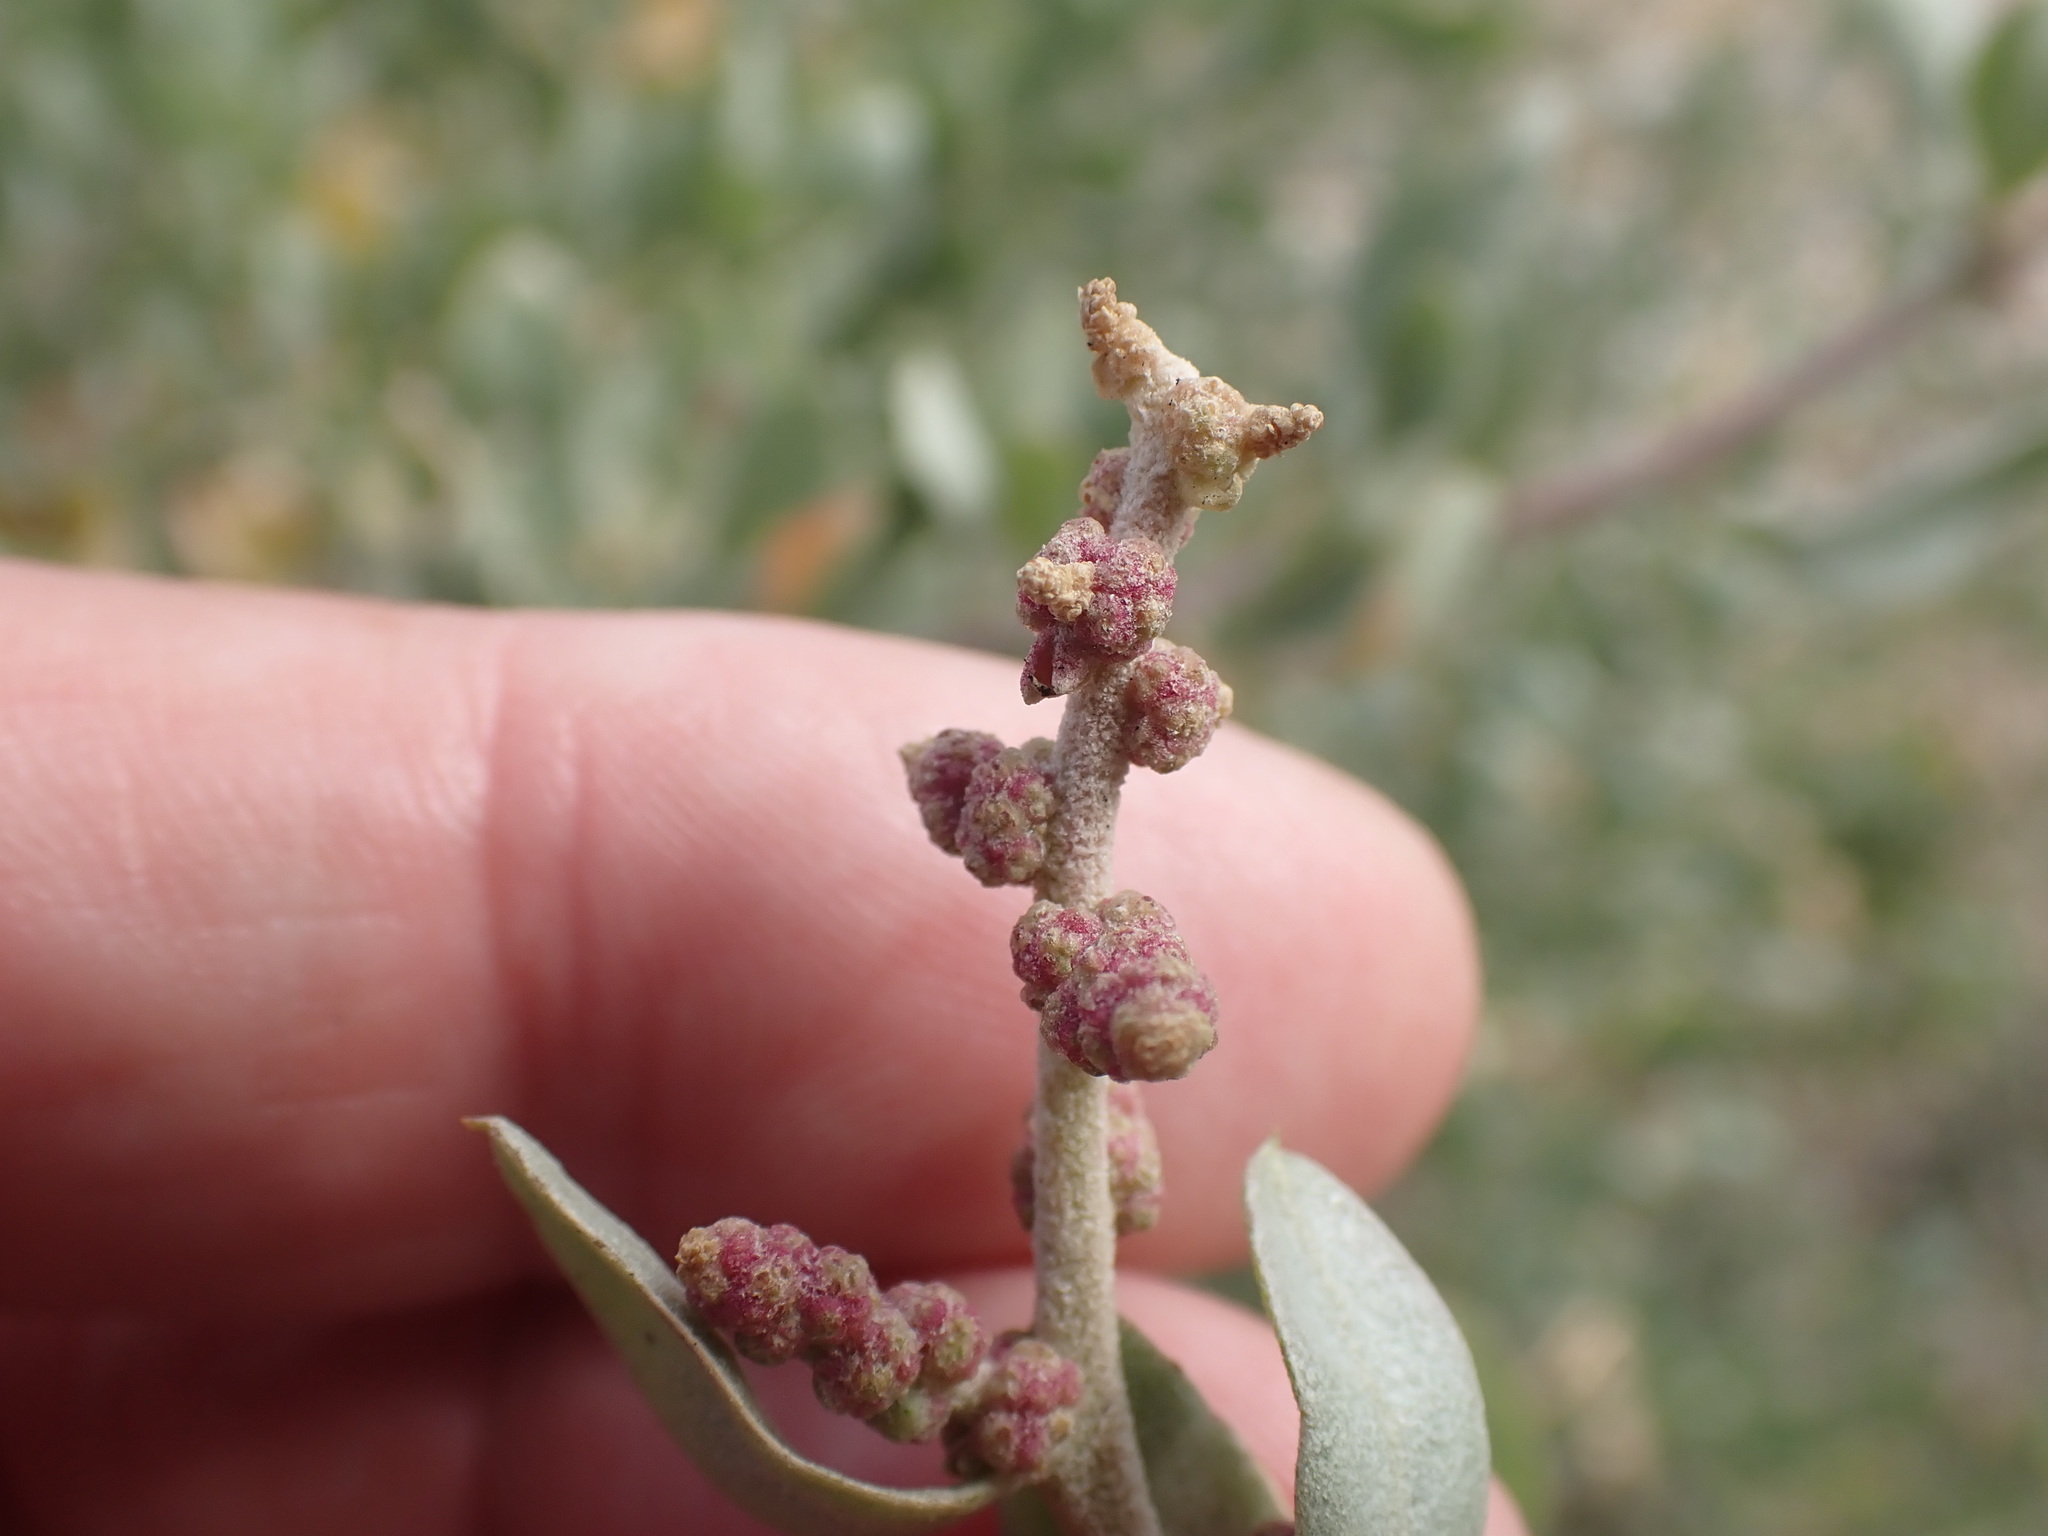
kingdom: Plantae
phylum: Tracheophyta
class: Magnoliopsida
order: Caryophyllales
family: Amaranthaceae
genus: Atriplex
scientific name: Atriplex halimus
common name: Shrubby orache
